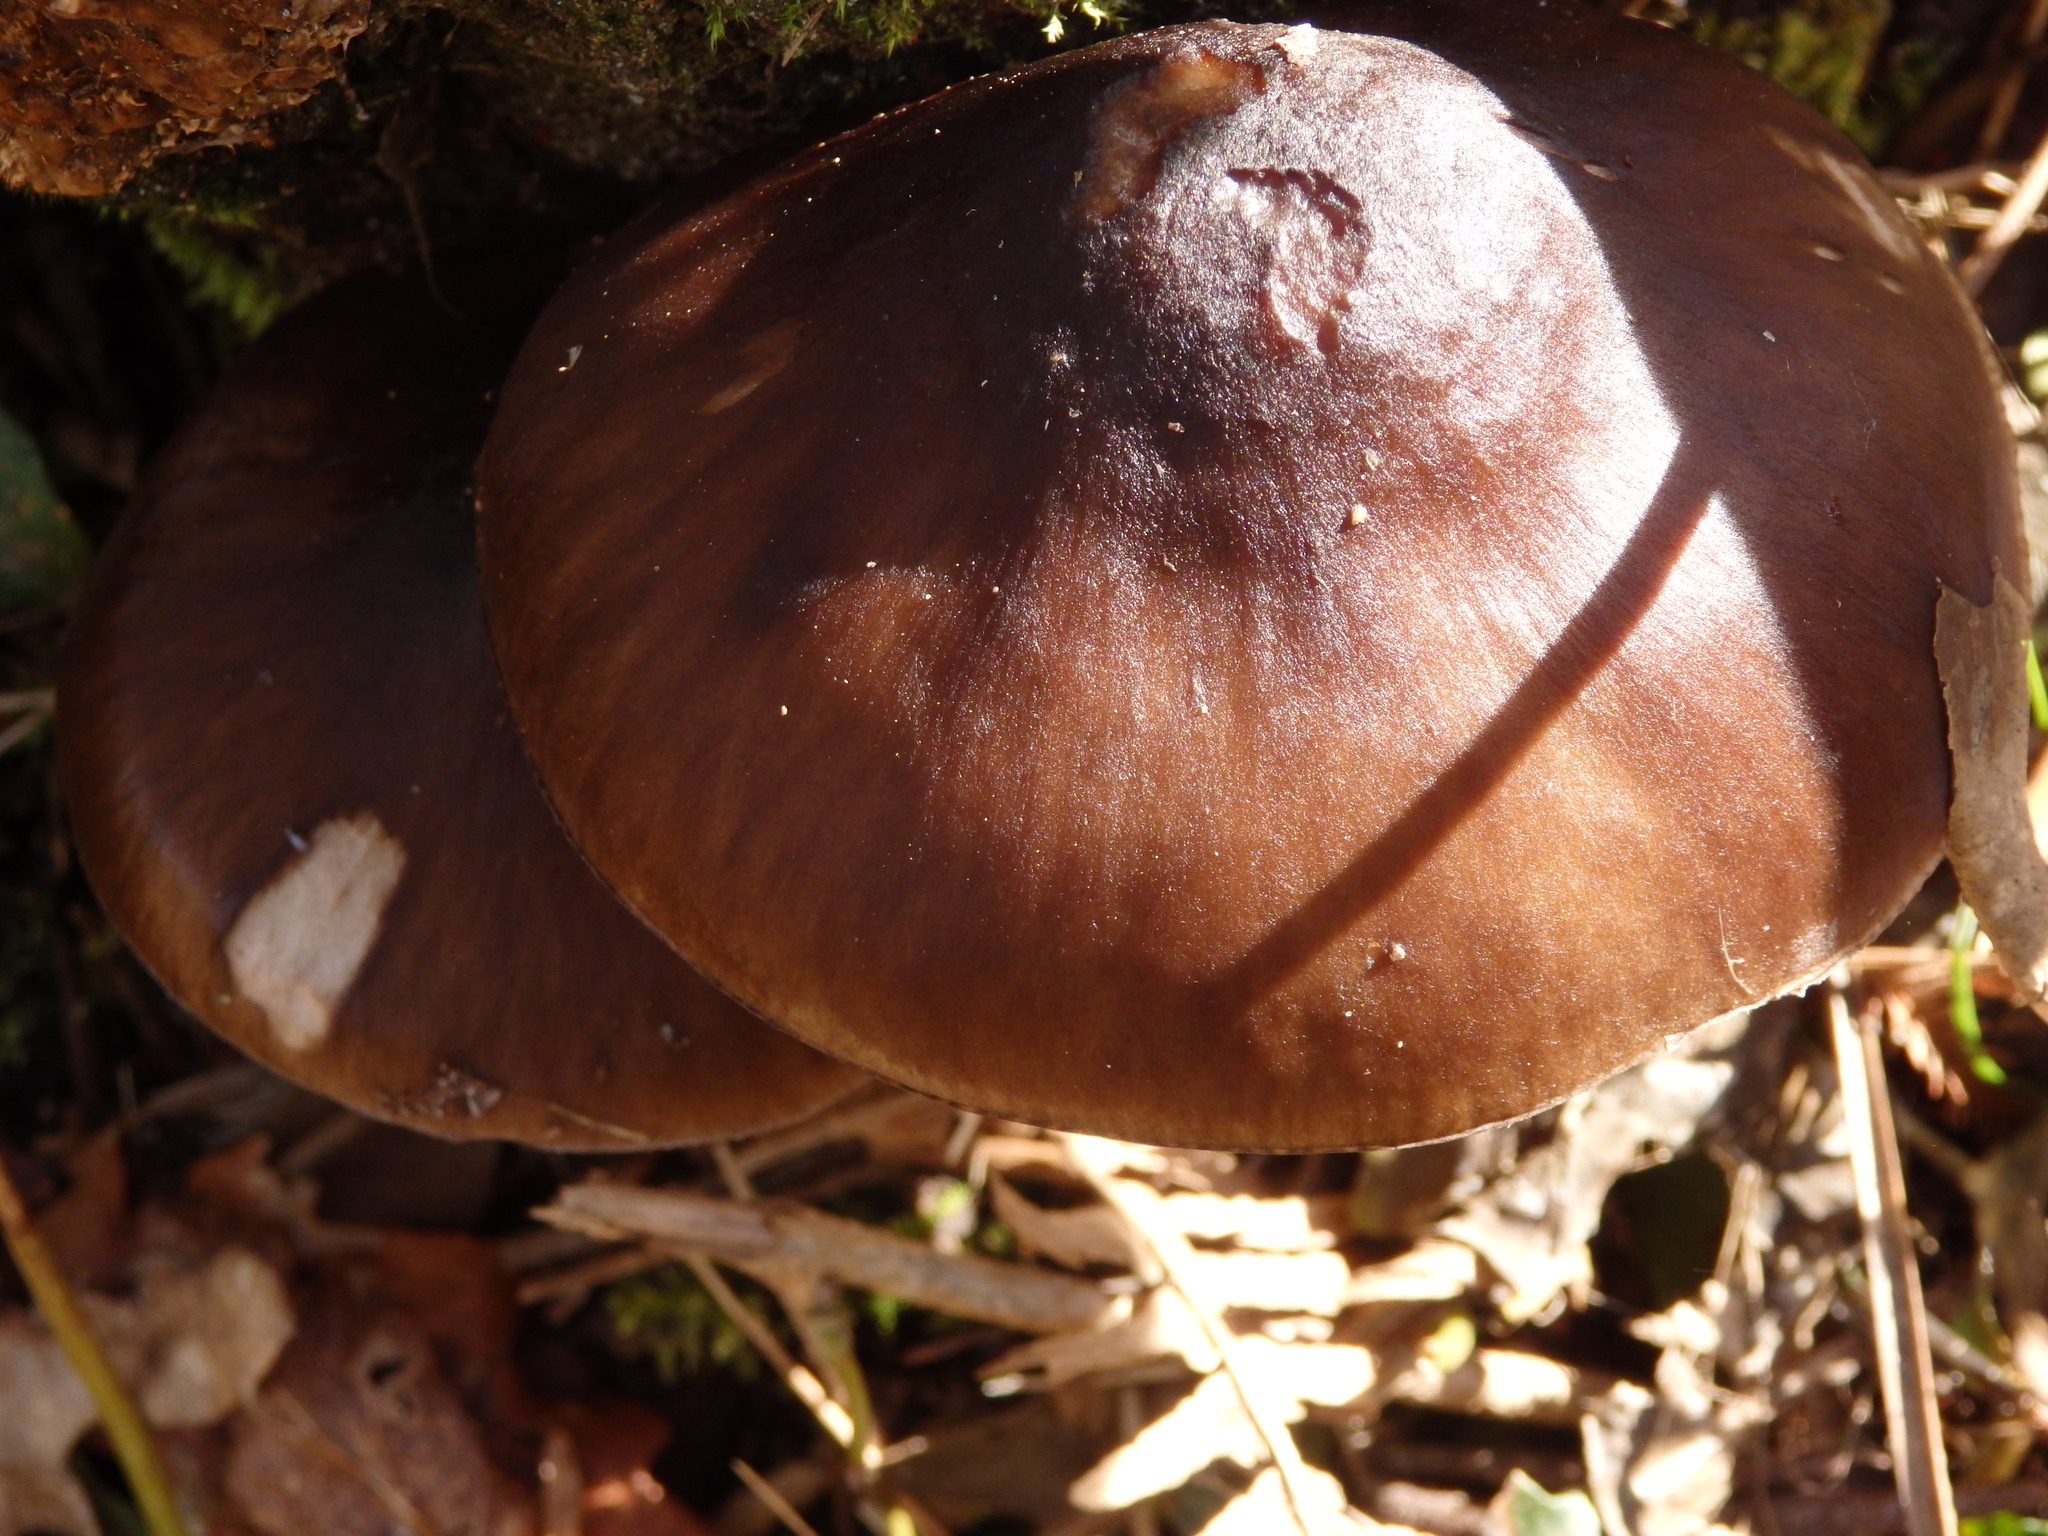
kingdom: Fungi
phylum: Basidiomycota
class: Agaricomycetes
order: Agaricales
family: Pluteaceae
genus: Pluteus
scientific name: Pluteus cervinus
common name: Deer shield
